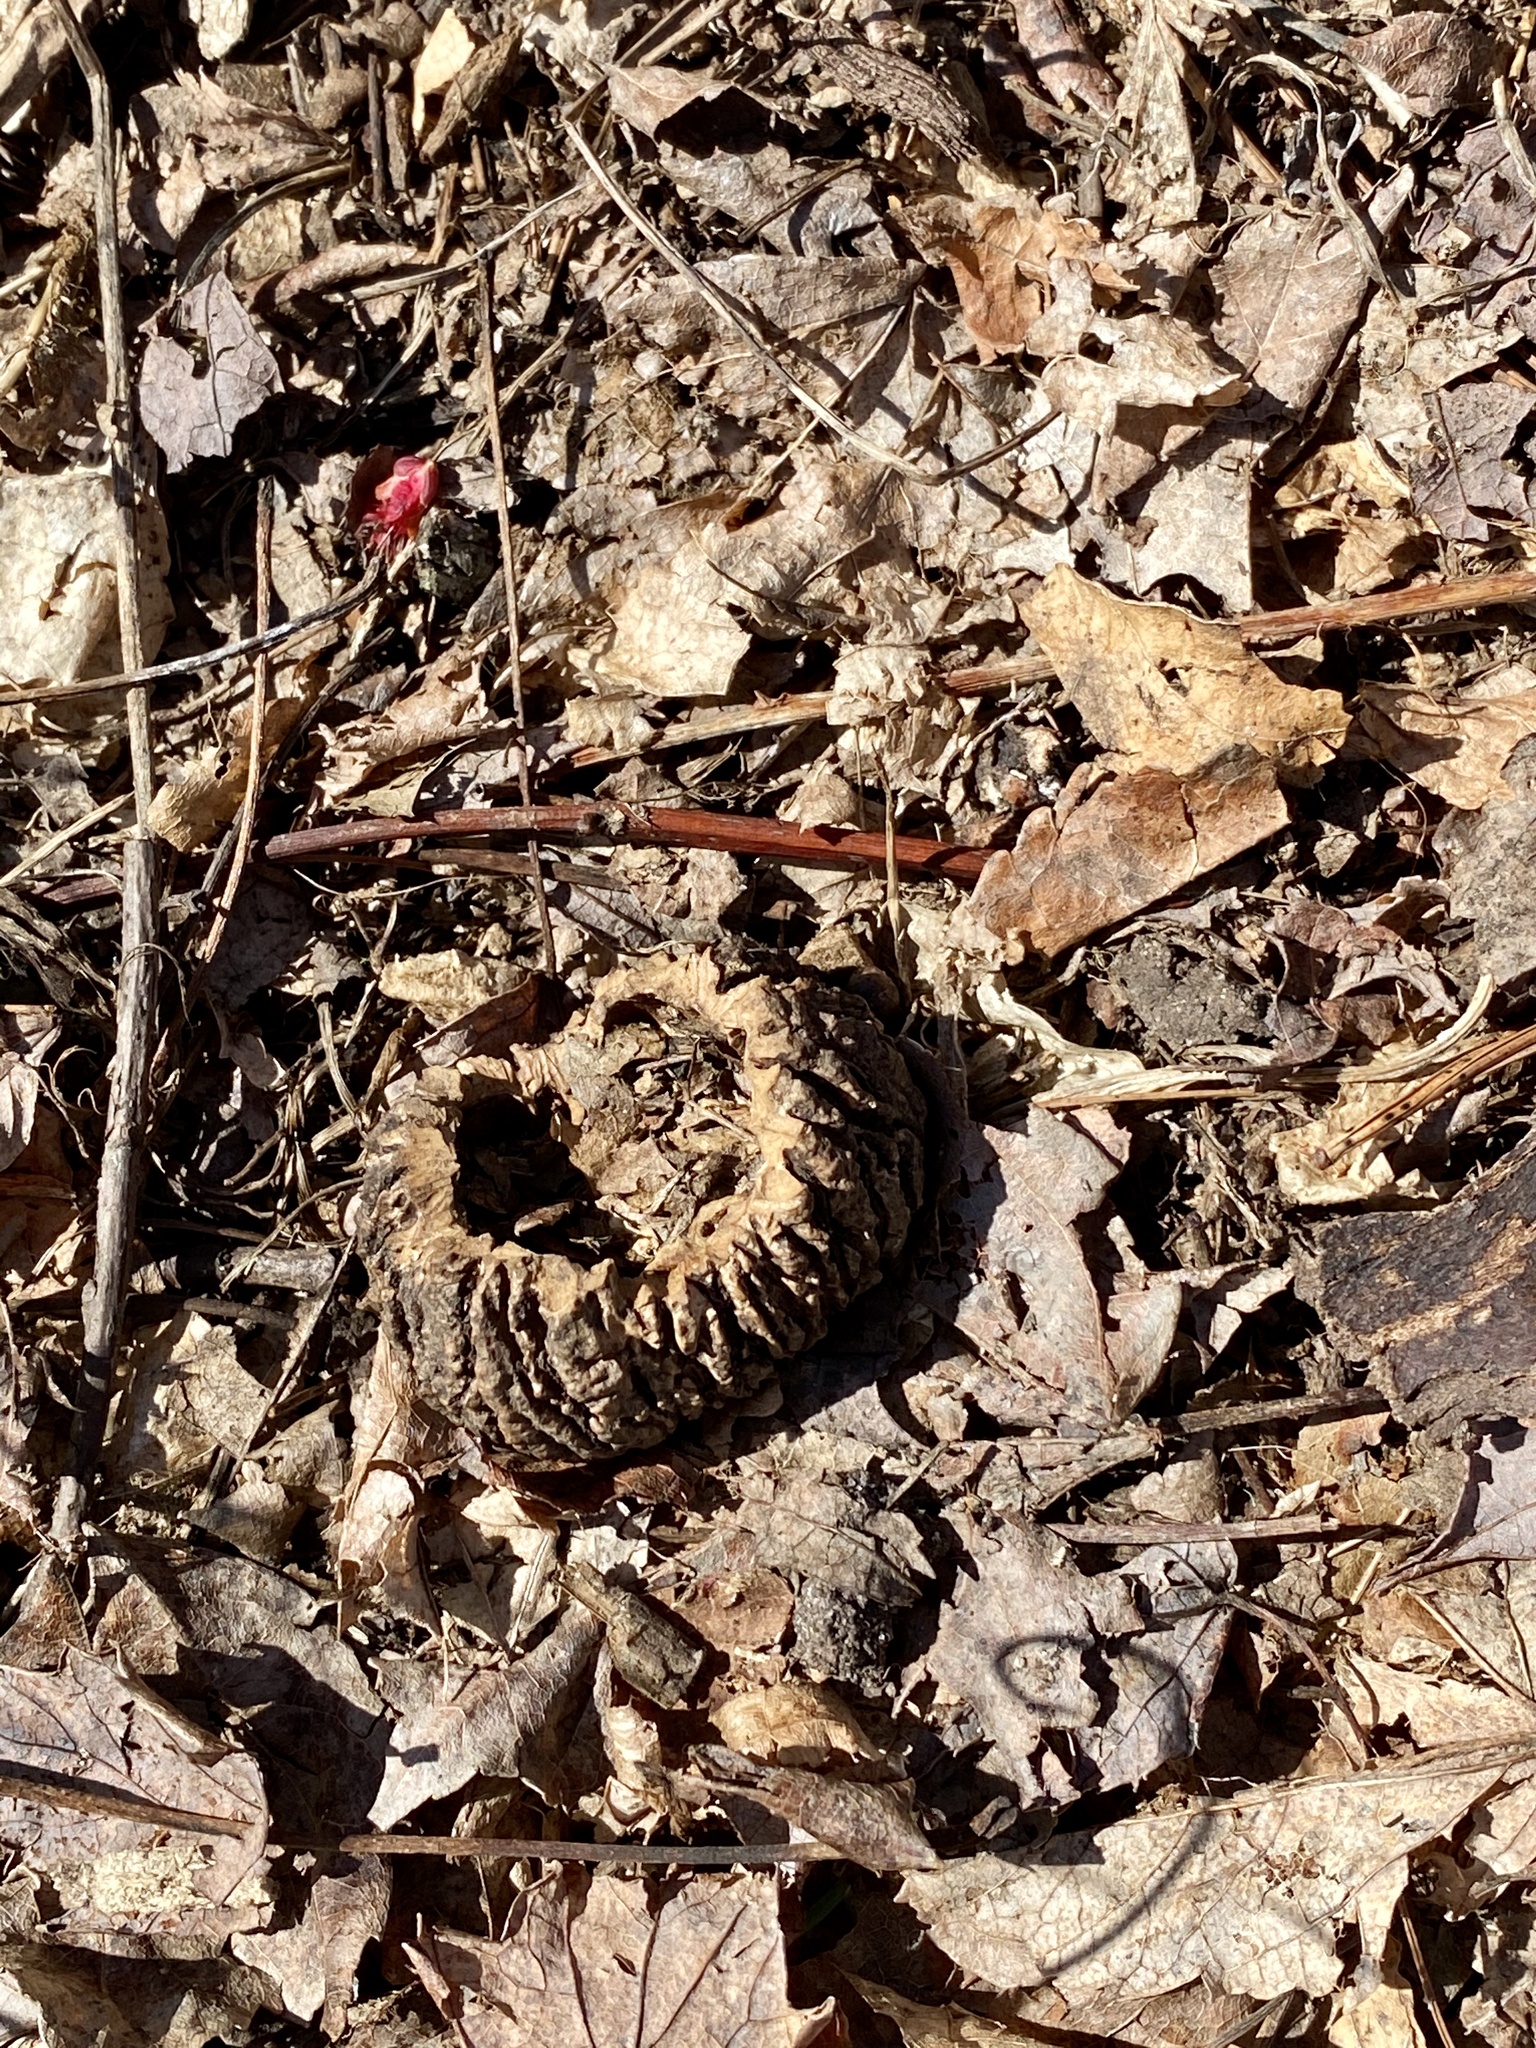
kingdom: Plantae
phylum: Tracheophyta
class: Magnoliopsida
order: Fagales
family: Juglandaceae
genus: Juglans
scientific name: Juglans nigra
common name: Black walnut
